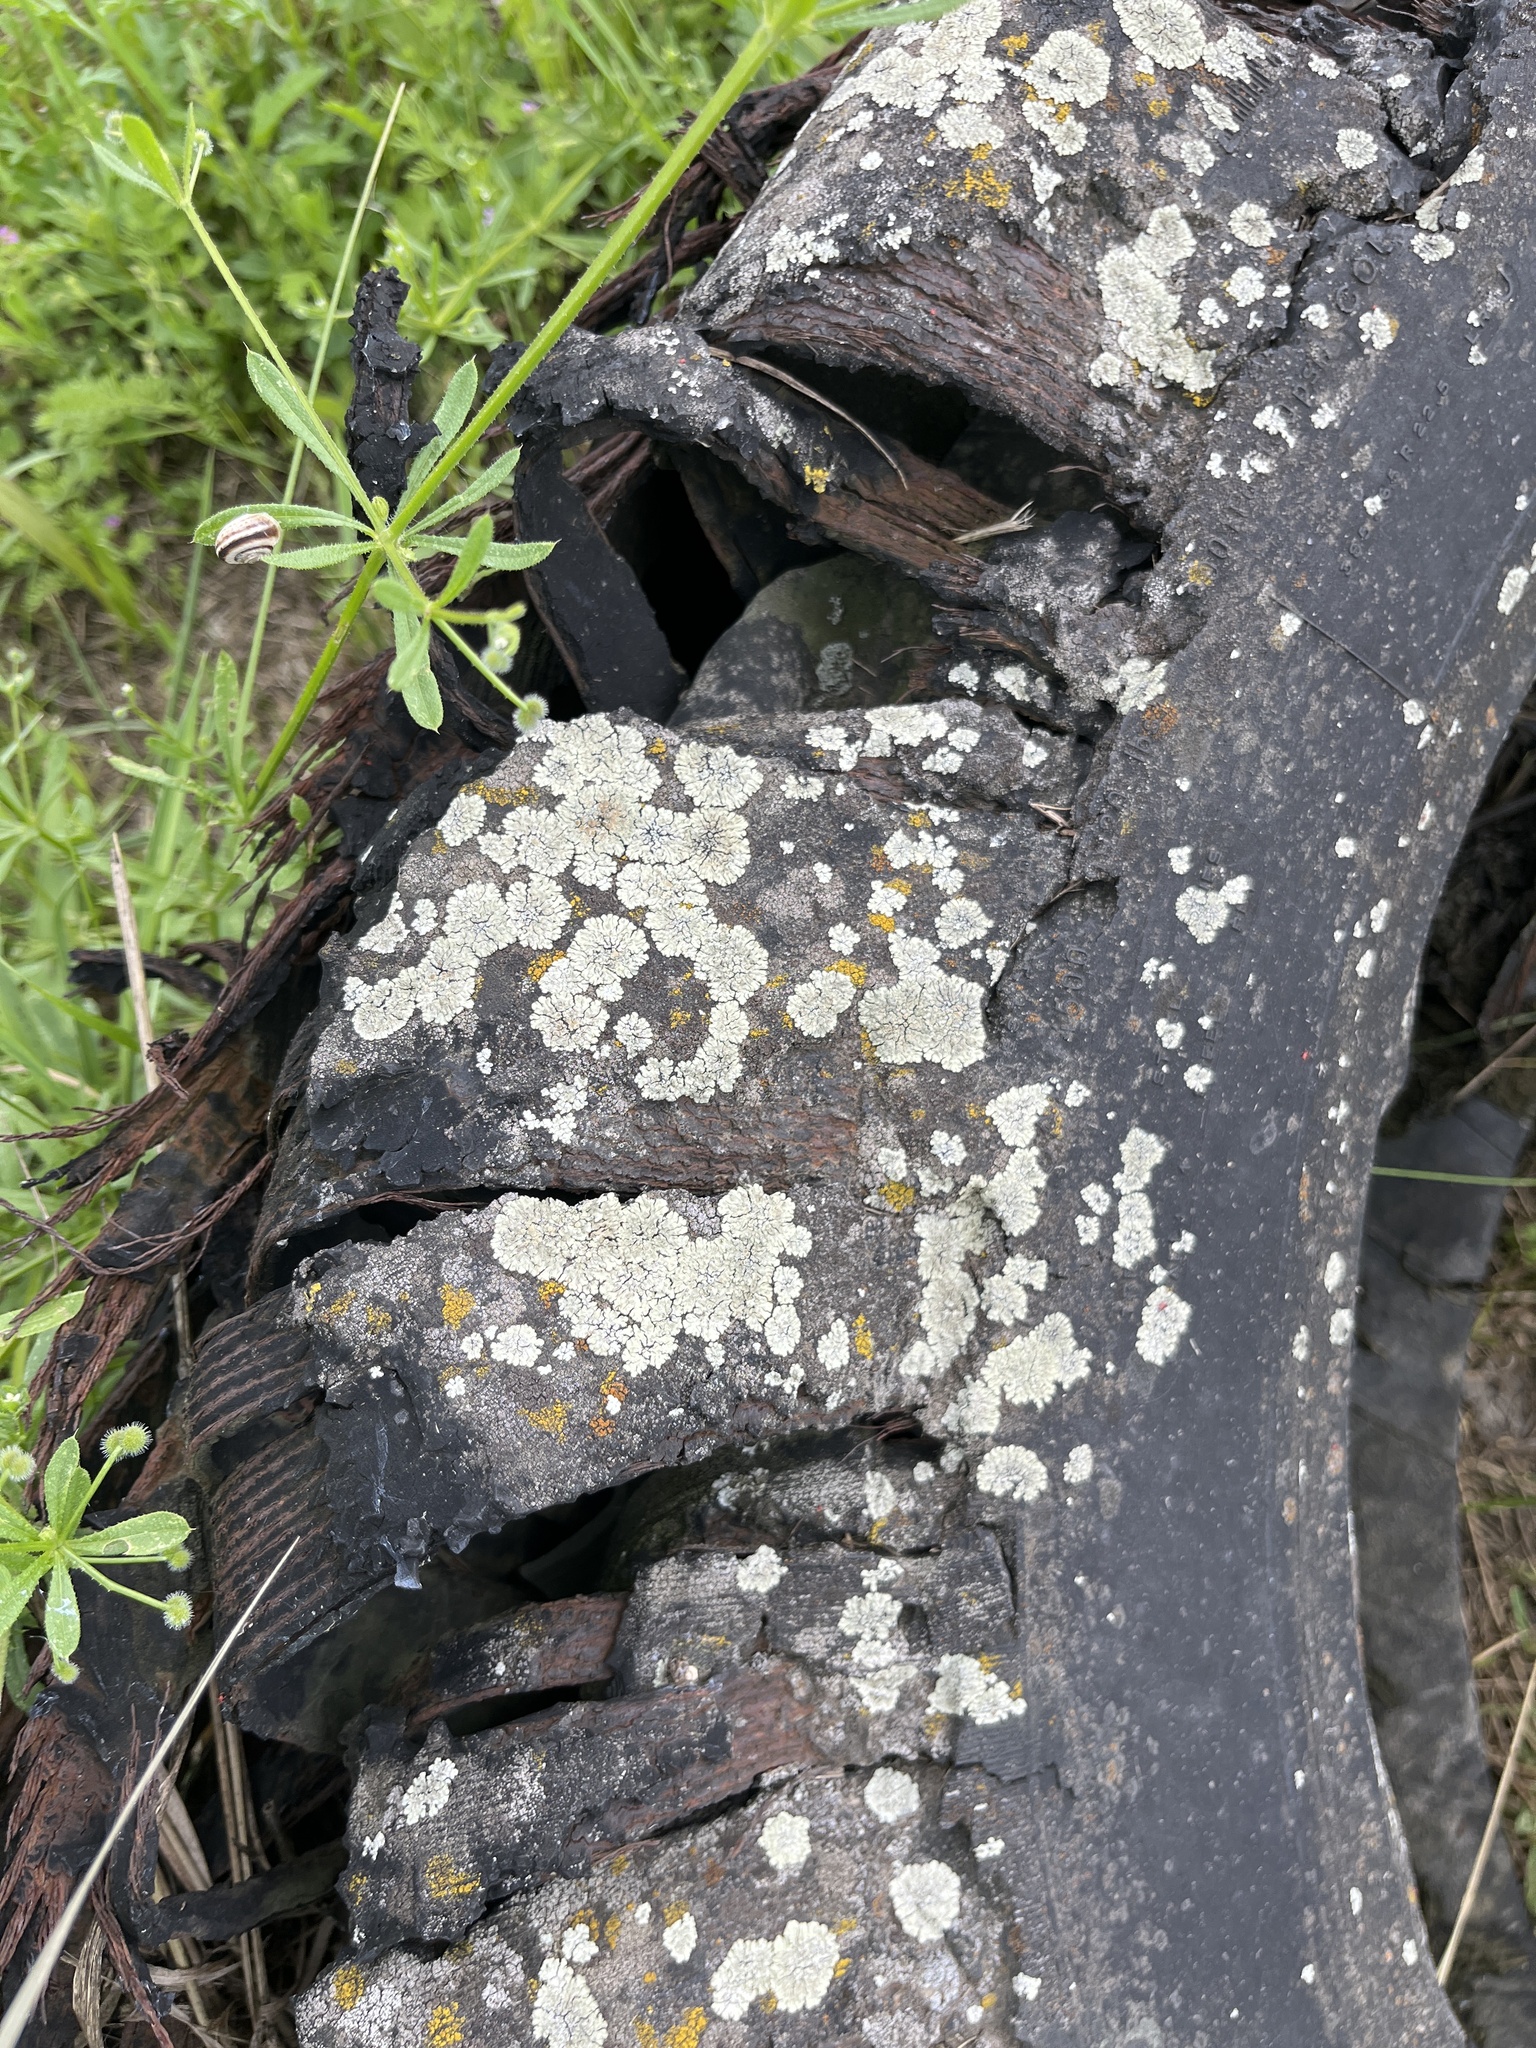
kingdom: Fungi
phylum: Ascomycota
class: Lecanoromycetes
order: Lecanorales
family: Lecanoraceae
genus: Protoparmeliopsis
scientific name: Protoparmeliopsis muralis
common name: Stonewall rim lichen
